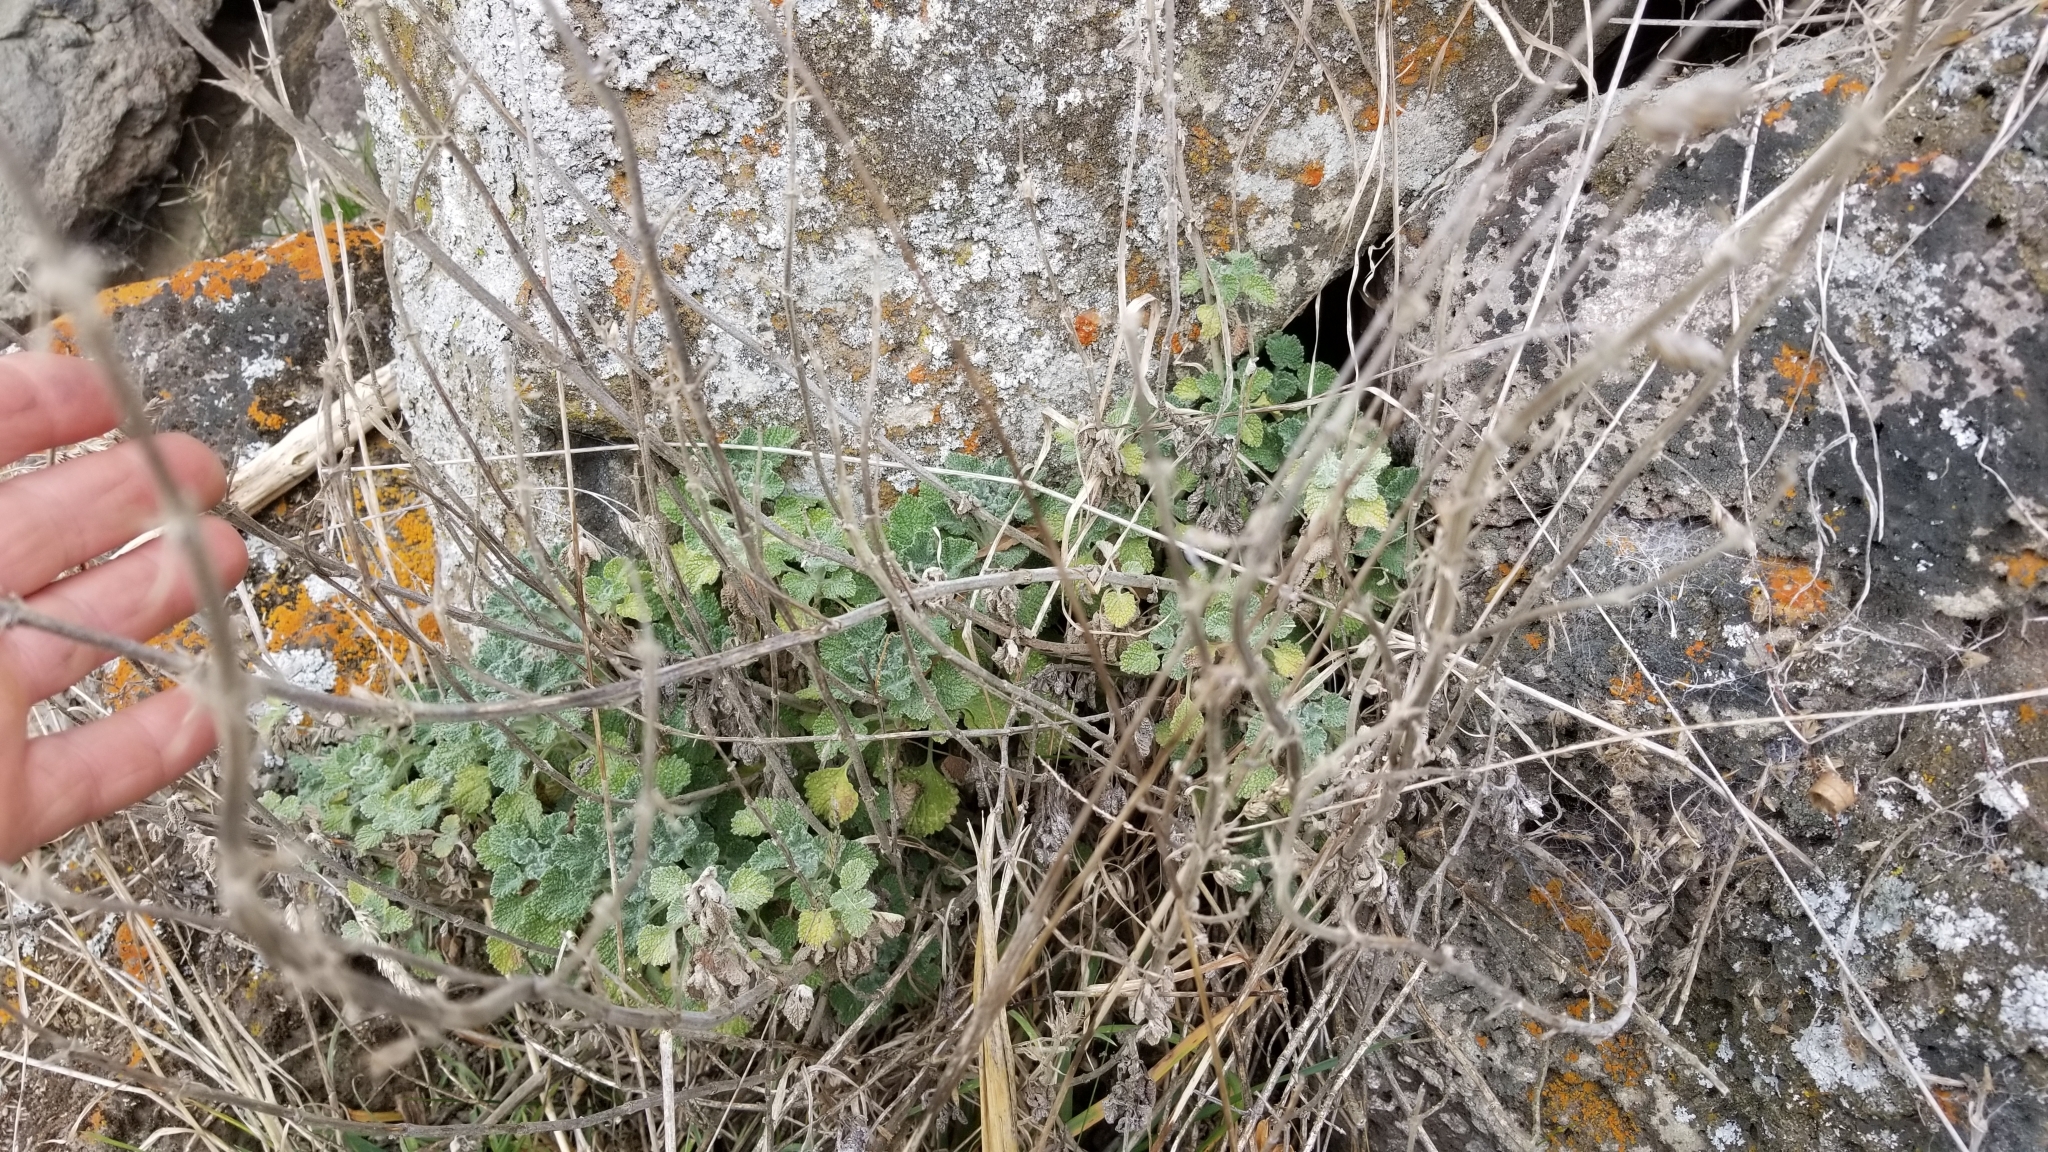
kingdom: Plantae
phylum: Tracheophyta
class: Magnoliopsida
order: Lamiales
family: Lamiaceae
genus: Marrubium
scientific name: Marrubium vulgare
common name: Horehound
